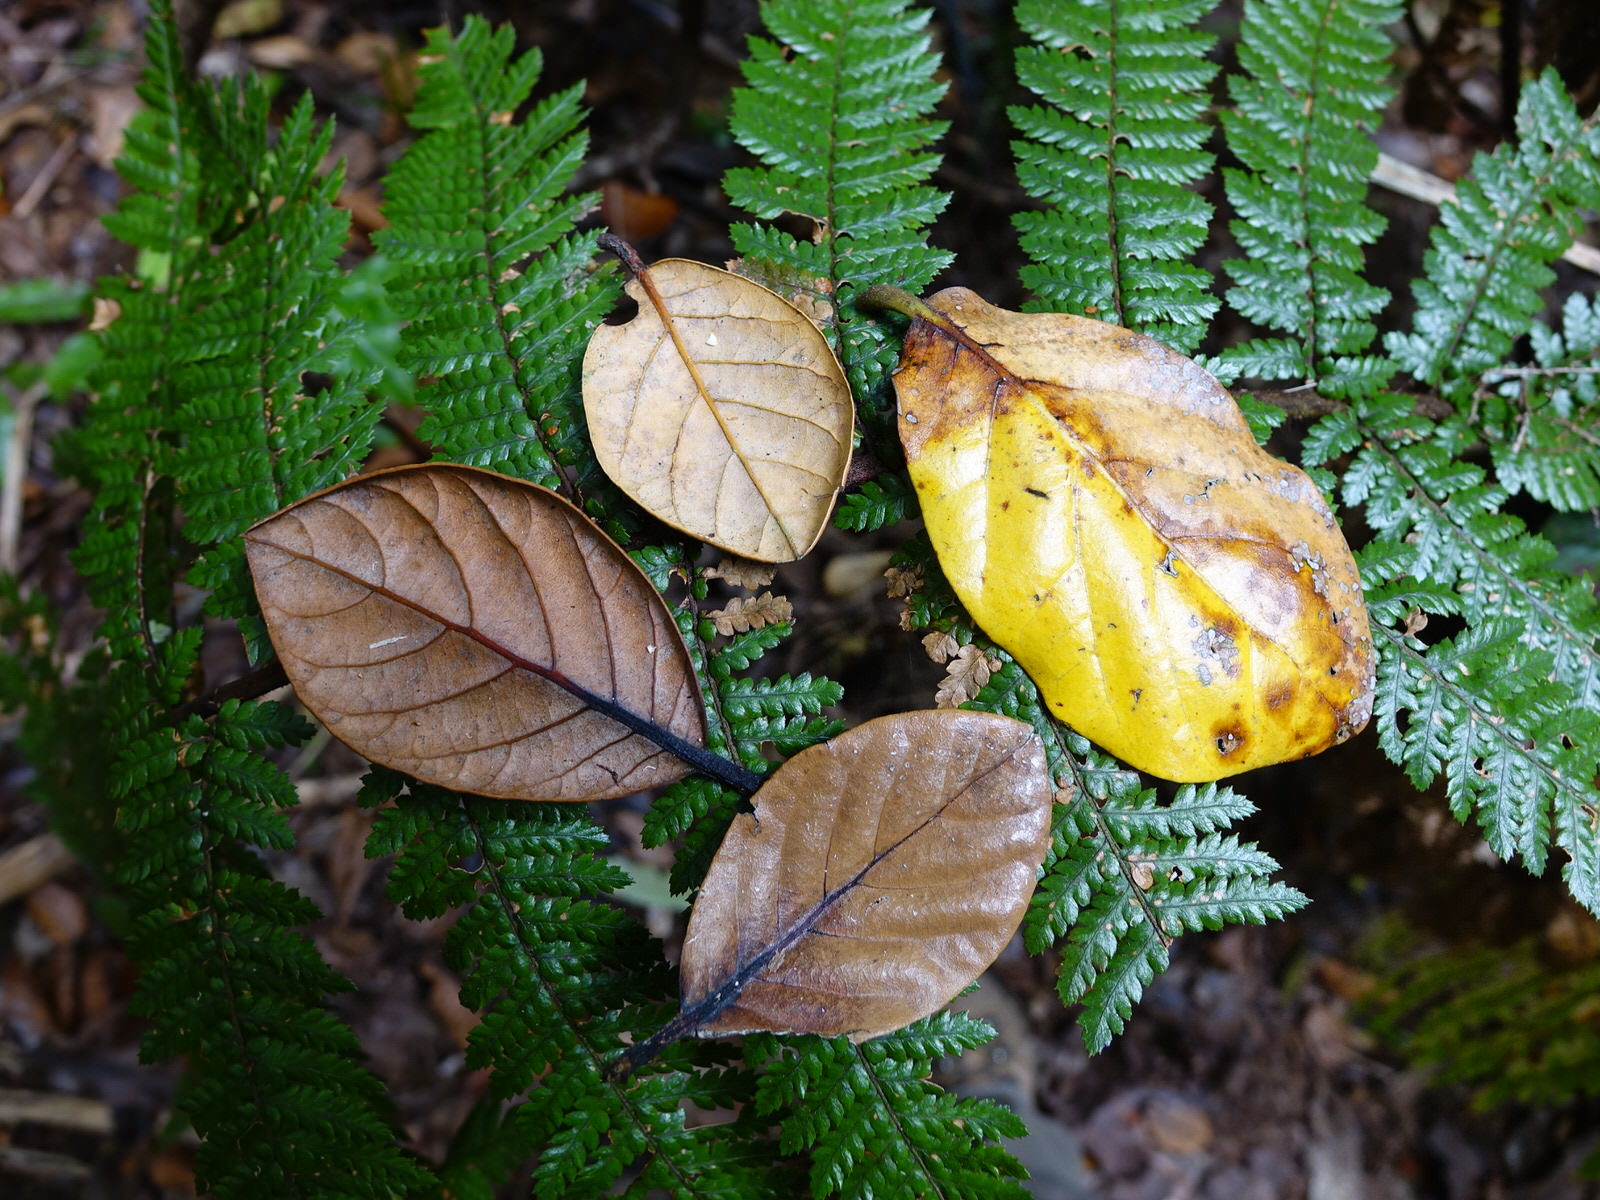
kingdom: Plantae
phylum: Tracheophyta
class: Magnoliopsida
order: Laurales
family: Lauraceae
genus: Beilschmiedia
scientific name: Beilschmiedia tarairi
